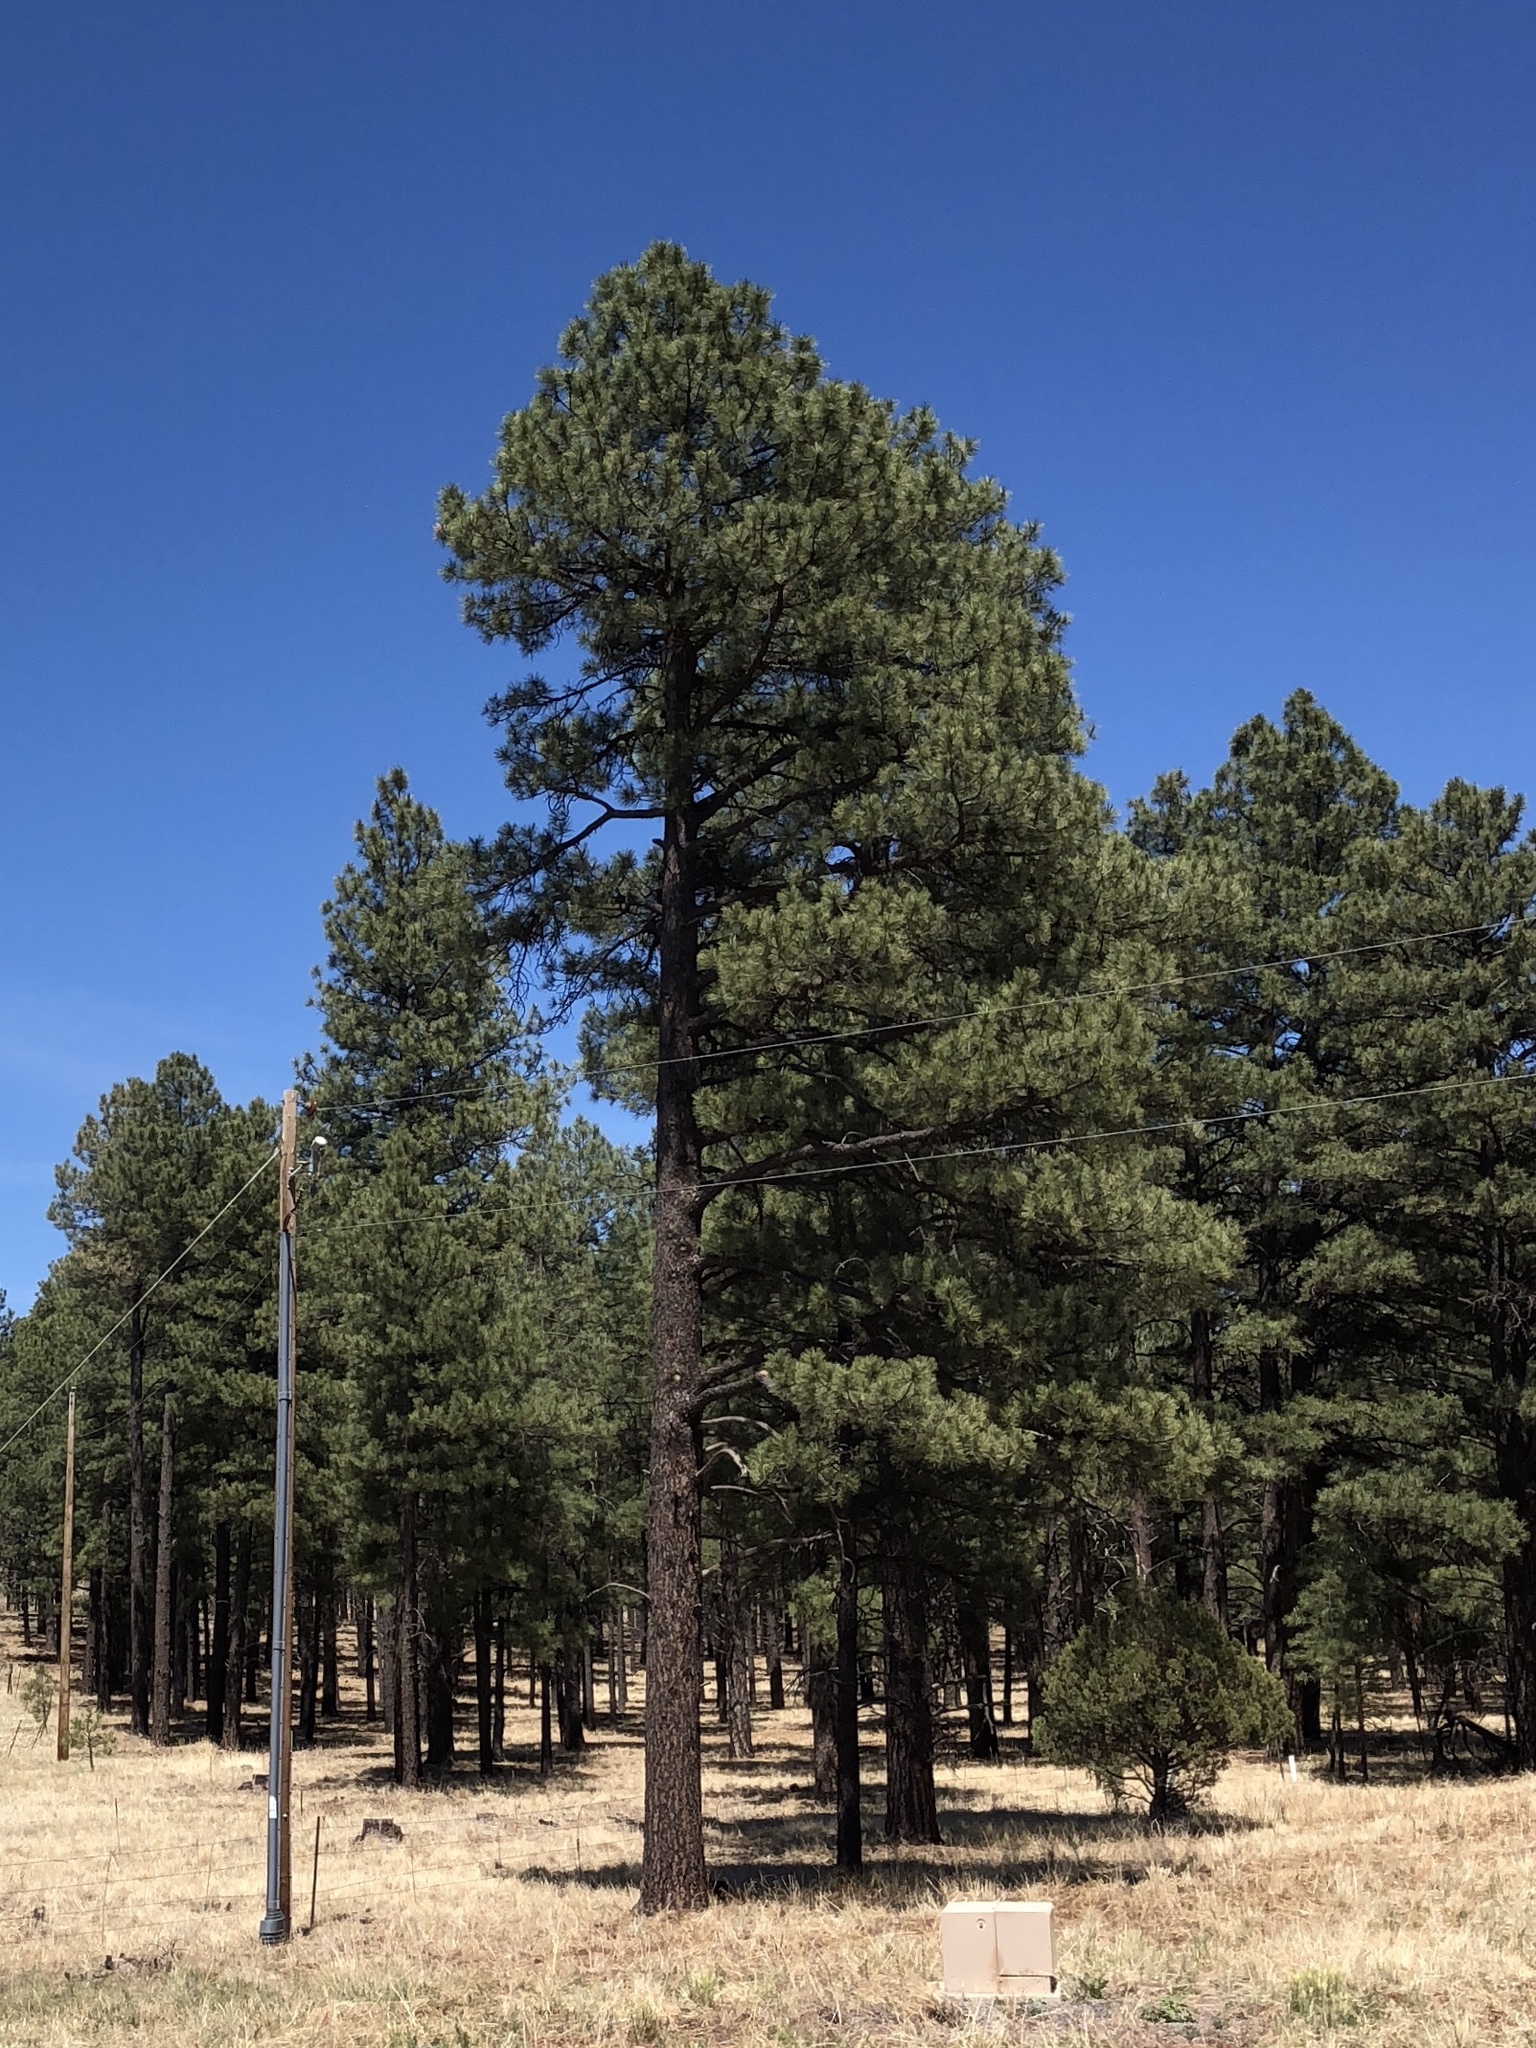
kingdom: Plantae
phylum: Tracheophyta
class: Pinopsida
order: Pinales
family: Pinaceae
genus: Pinus
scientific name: Pinus ponderosa
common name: Western yellow-pine
